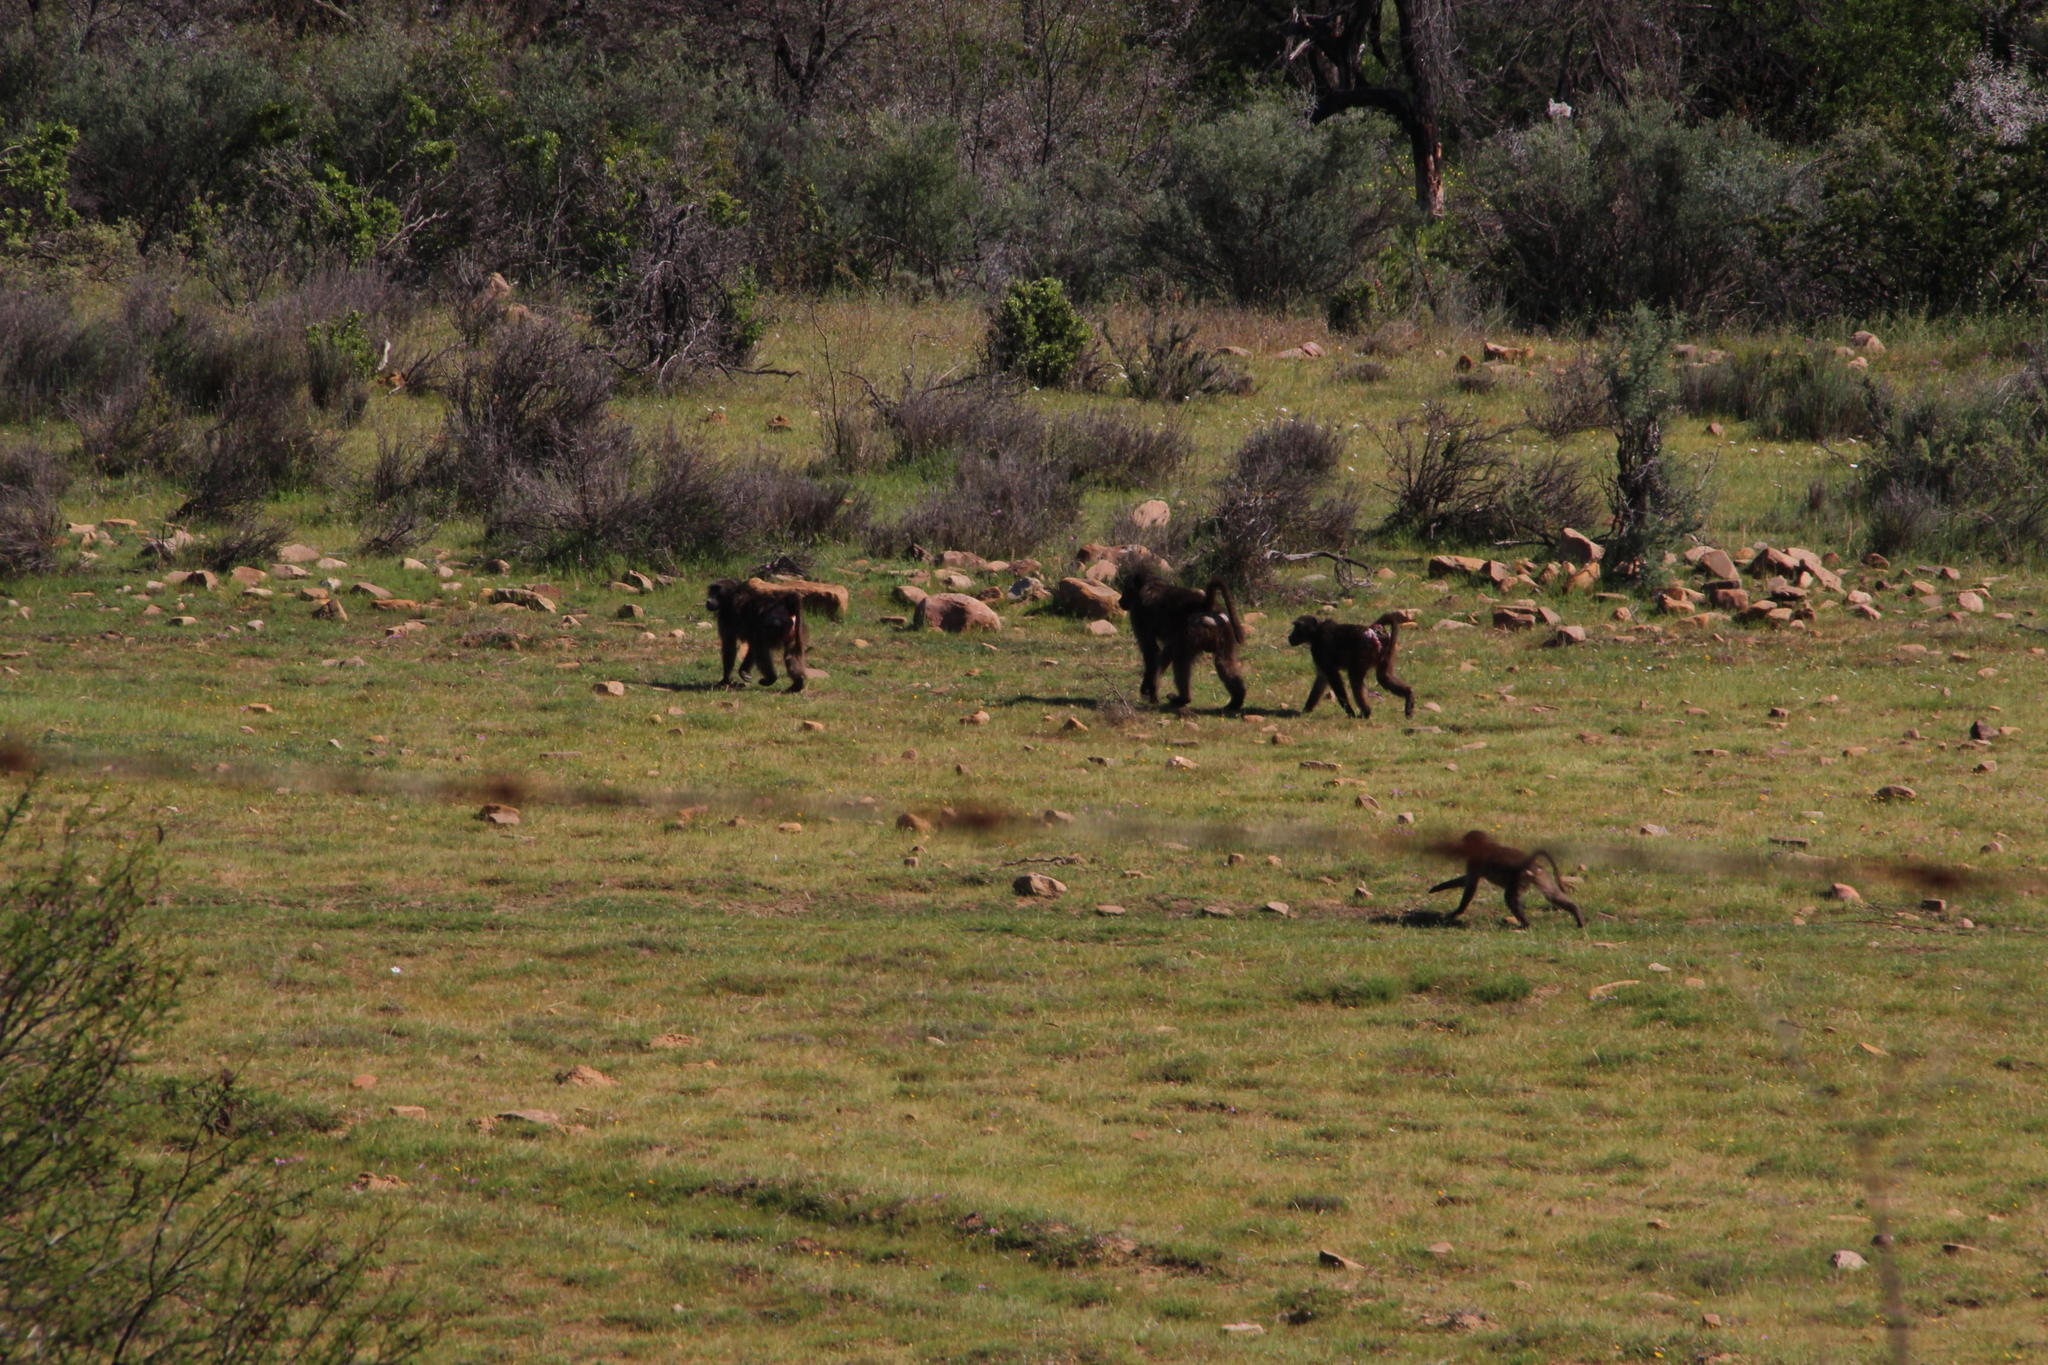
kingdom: Animalia
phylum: Chordata
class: Mammalia
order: Primates
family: Cercopithecidae
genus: Papio
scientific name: Papio ursinus
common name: Chacma baboon
